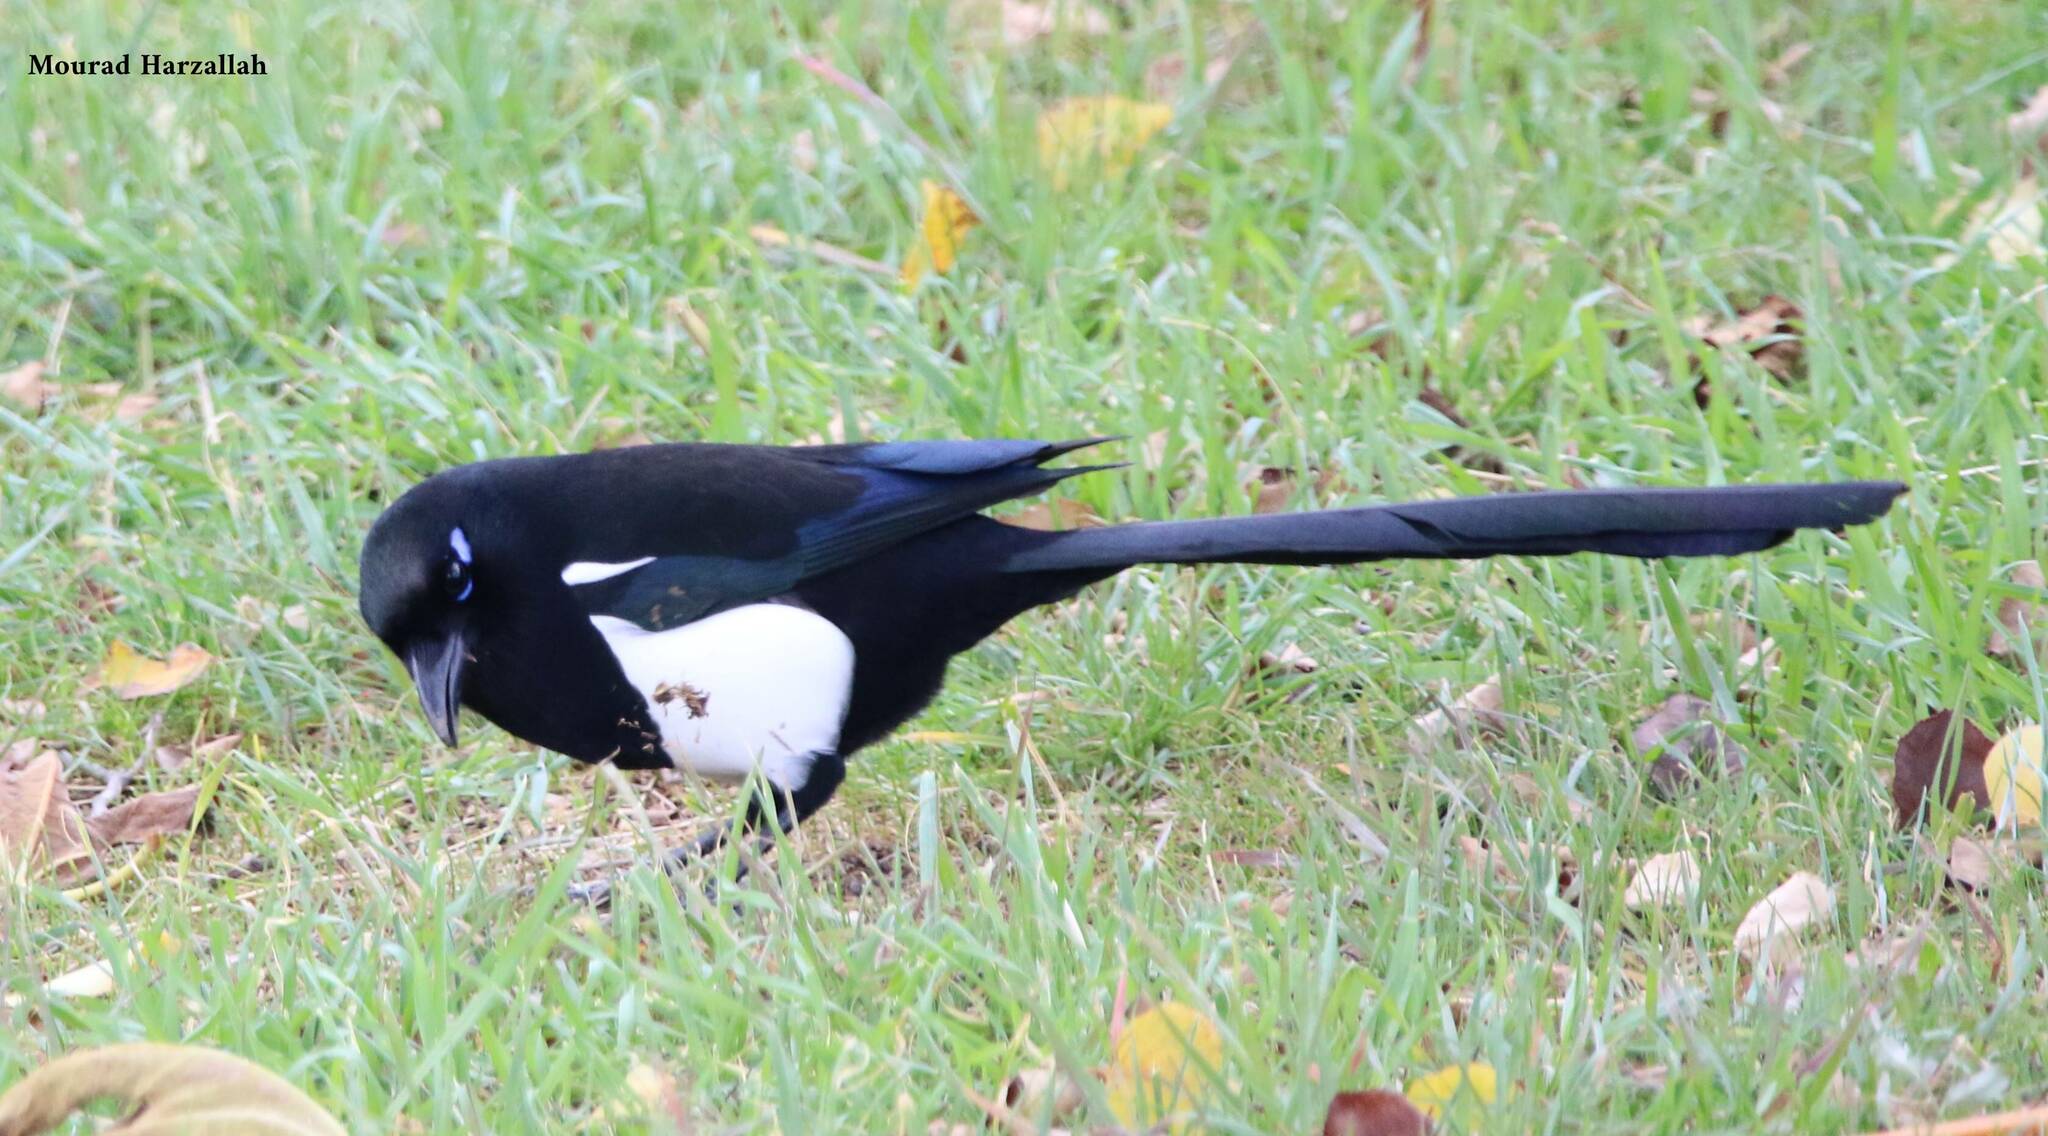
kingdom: Animalia
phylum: Chordata
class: Aves
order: Passeriformes
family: Corvidae
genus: Pica
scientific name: Pica mauritanica
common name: Maghreb magpie
